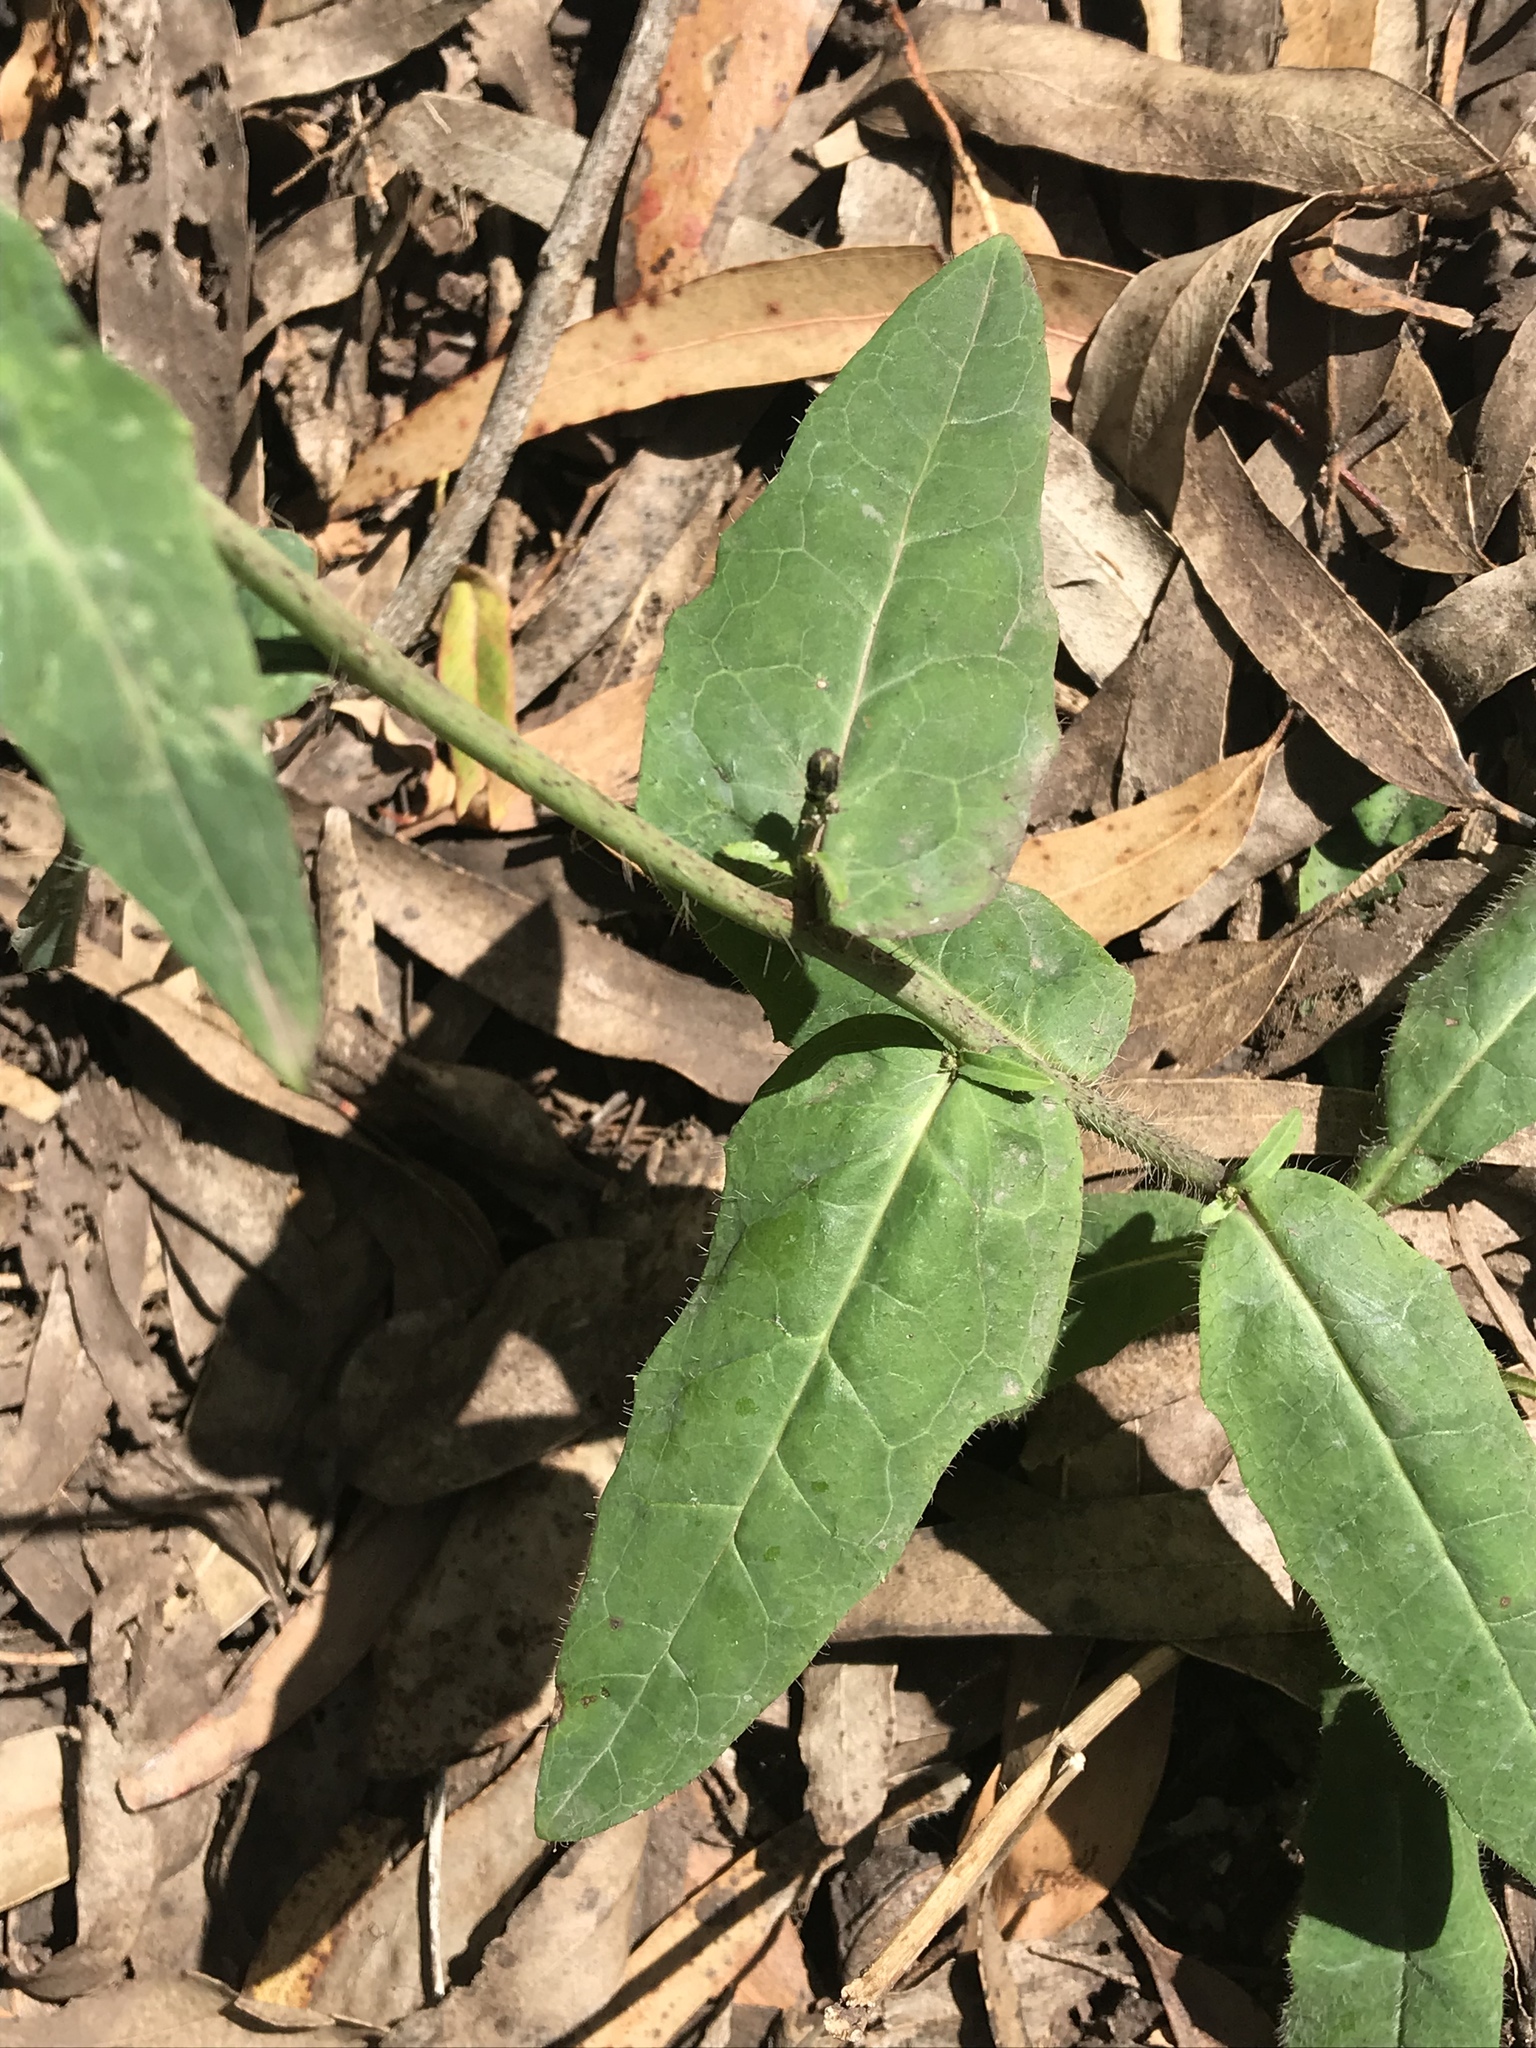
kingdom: Plantae
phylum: Tracheophyta
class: Magnoliopsida
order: Asterales
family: Asteraceae
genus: Hieracium
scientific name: Hieracium albiflorum
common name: White hawkweed
